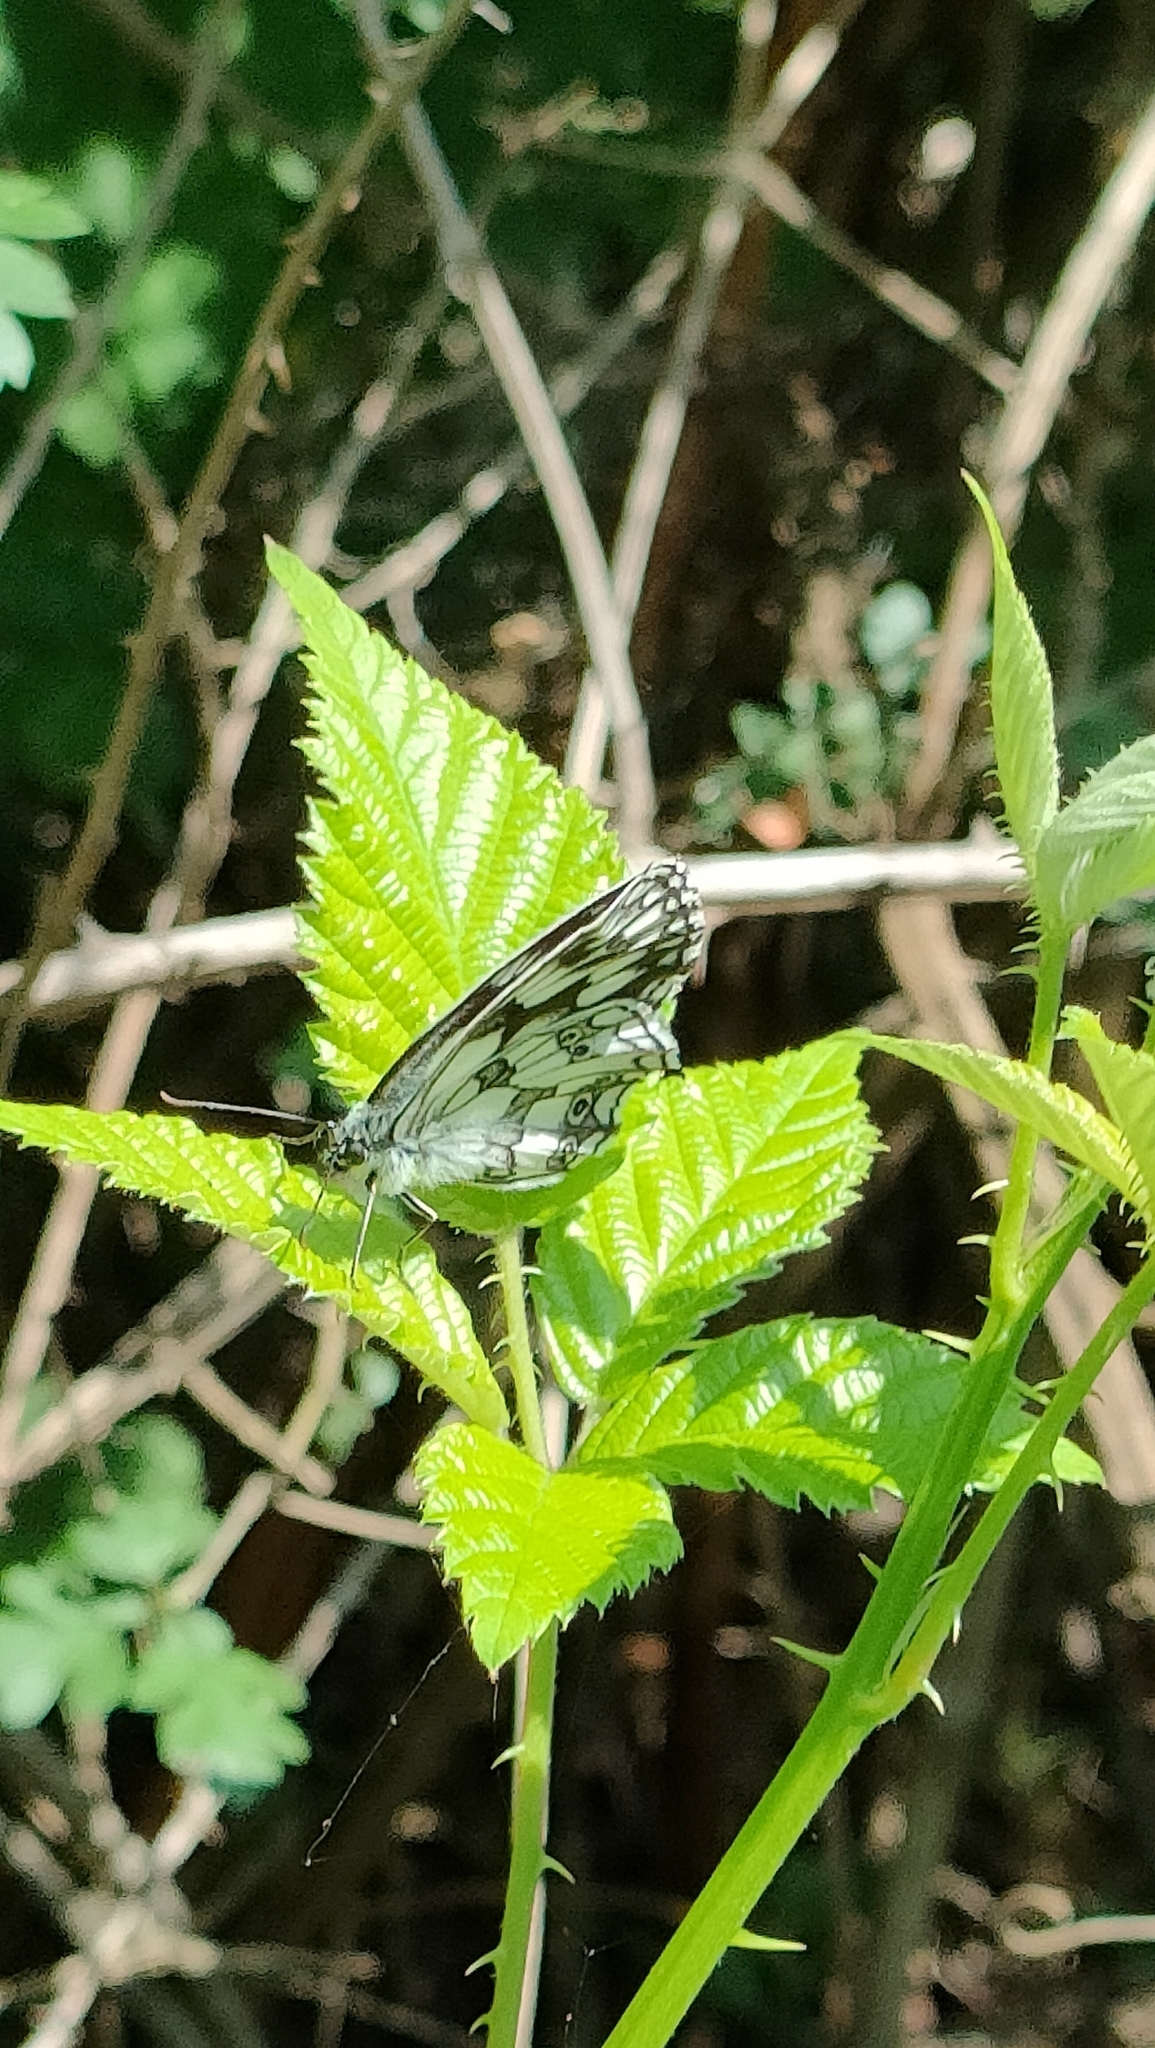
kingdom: Animalia
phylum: Arthropoda
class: Insecta
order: Lepidoptera
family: Nymphalidae
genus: Melanargia
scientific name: Melanargia galathea
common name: Marbled white
